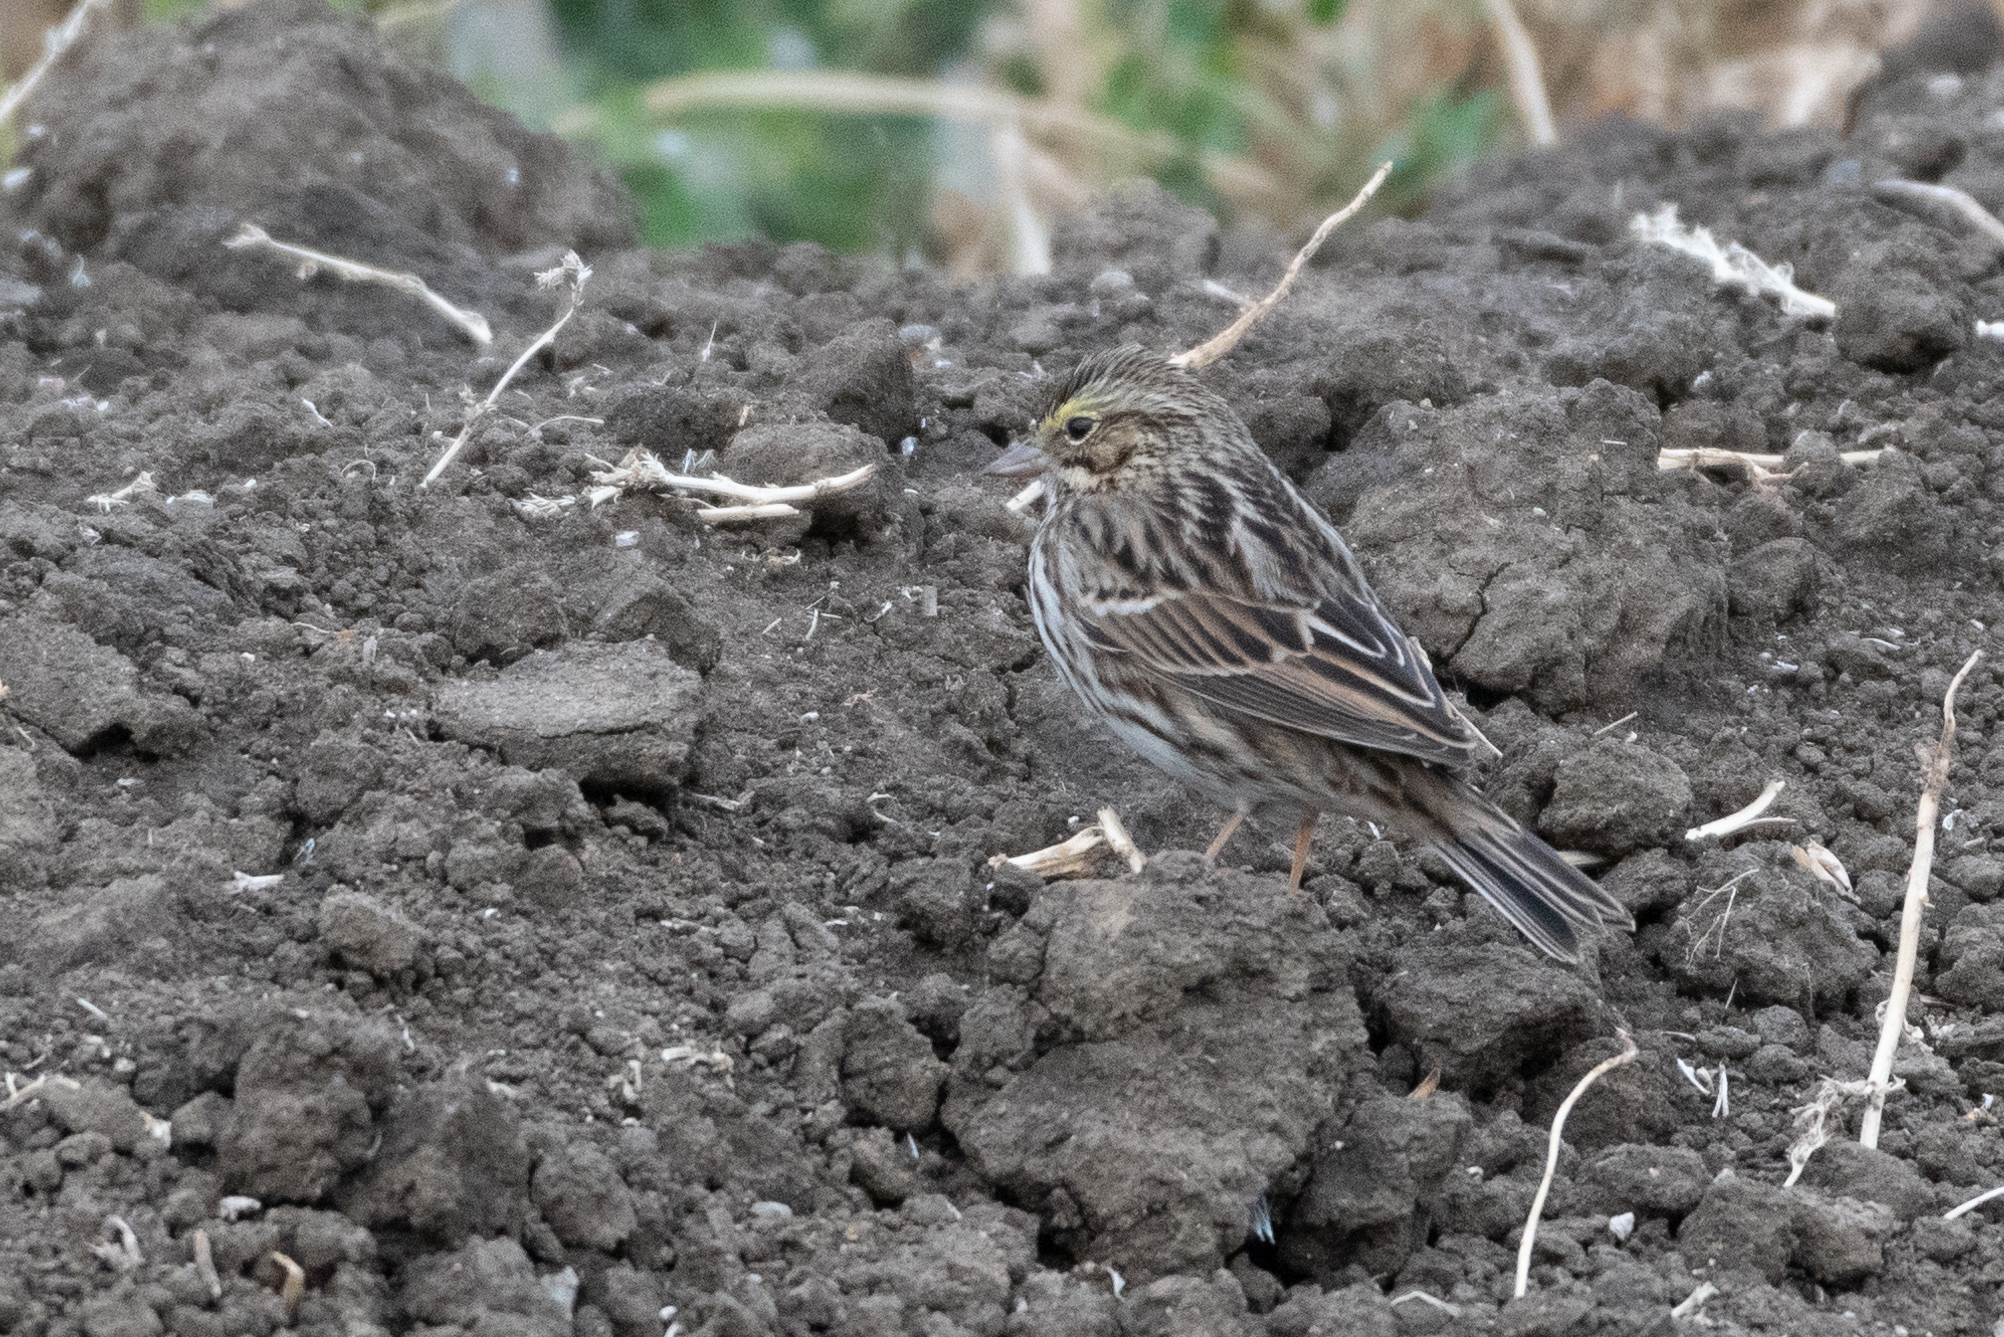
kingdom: Animalia
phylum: Chordata
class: Aves
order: Passeriformes
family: Passerellidae
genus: Passerculus
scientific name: Passerculus sandwichensis
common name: Savannah sparrow
